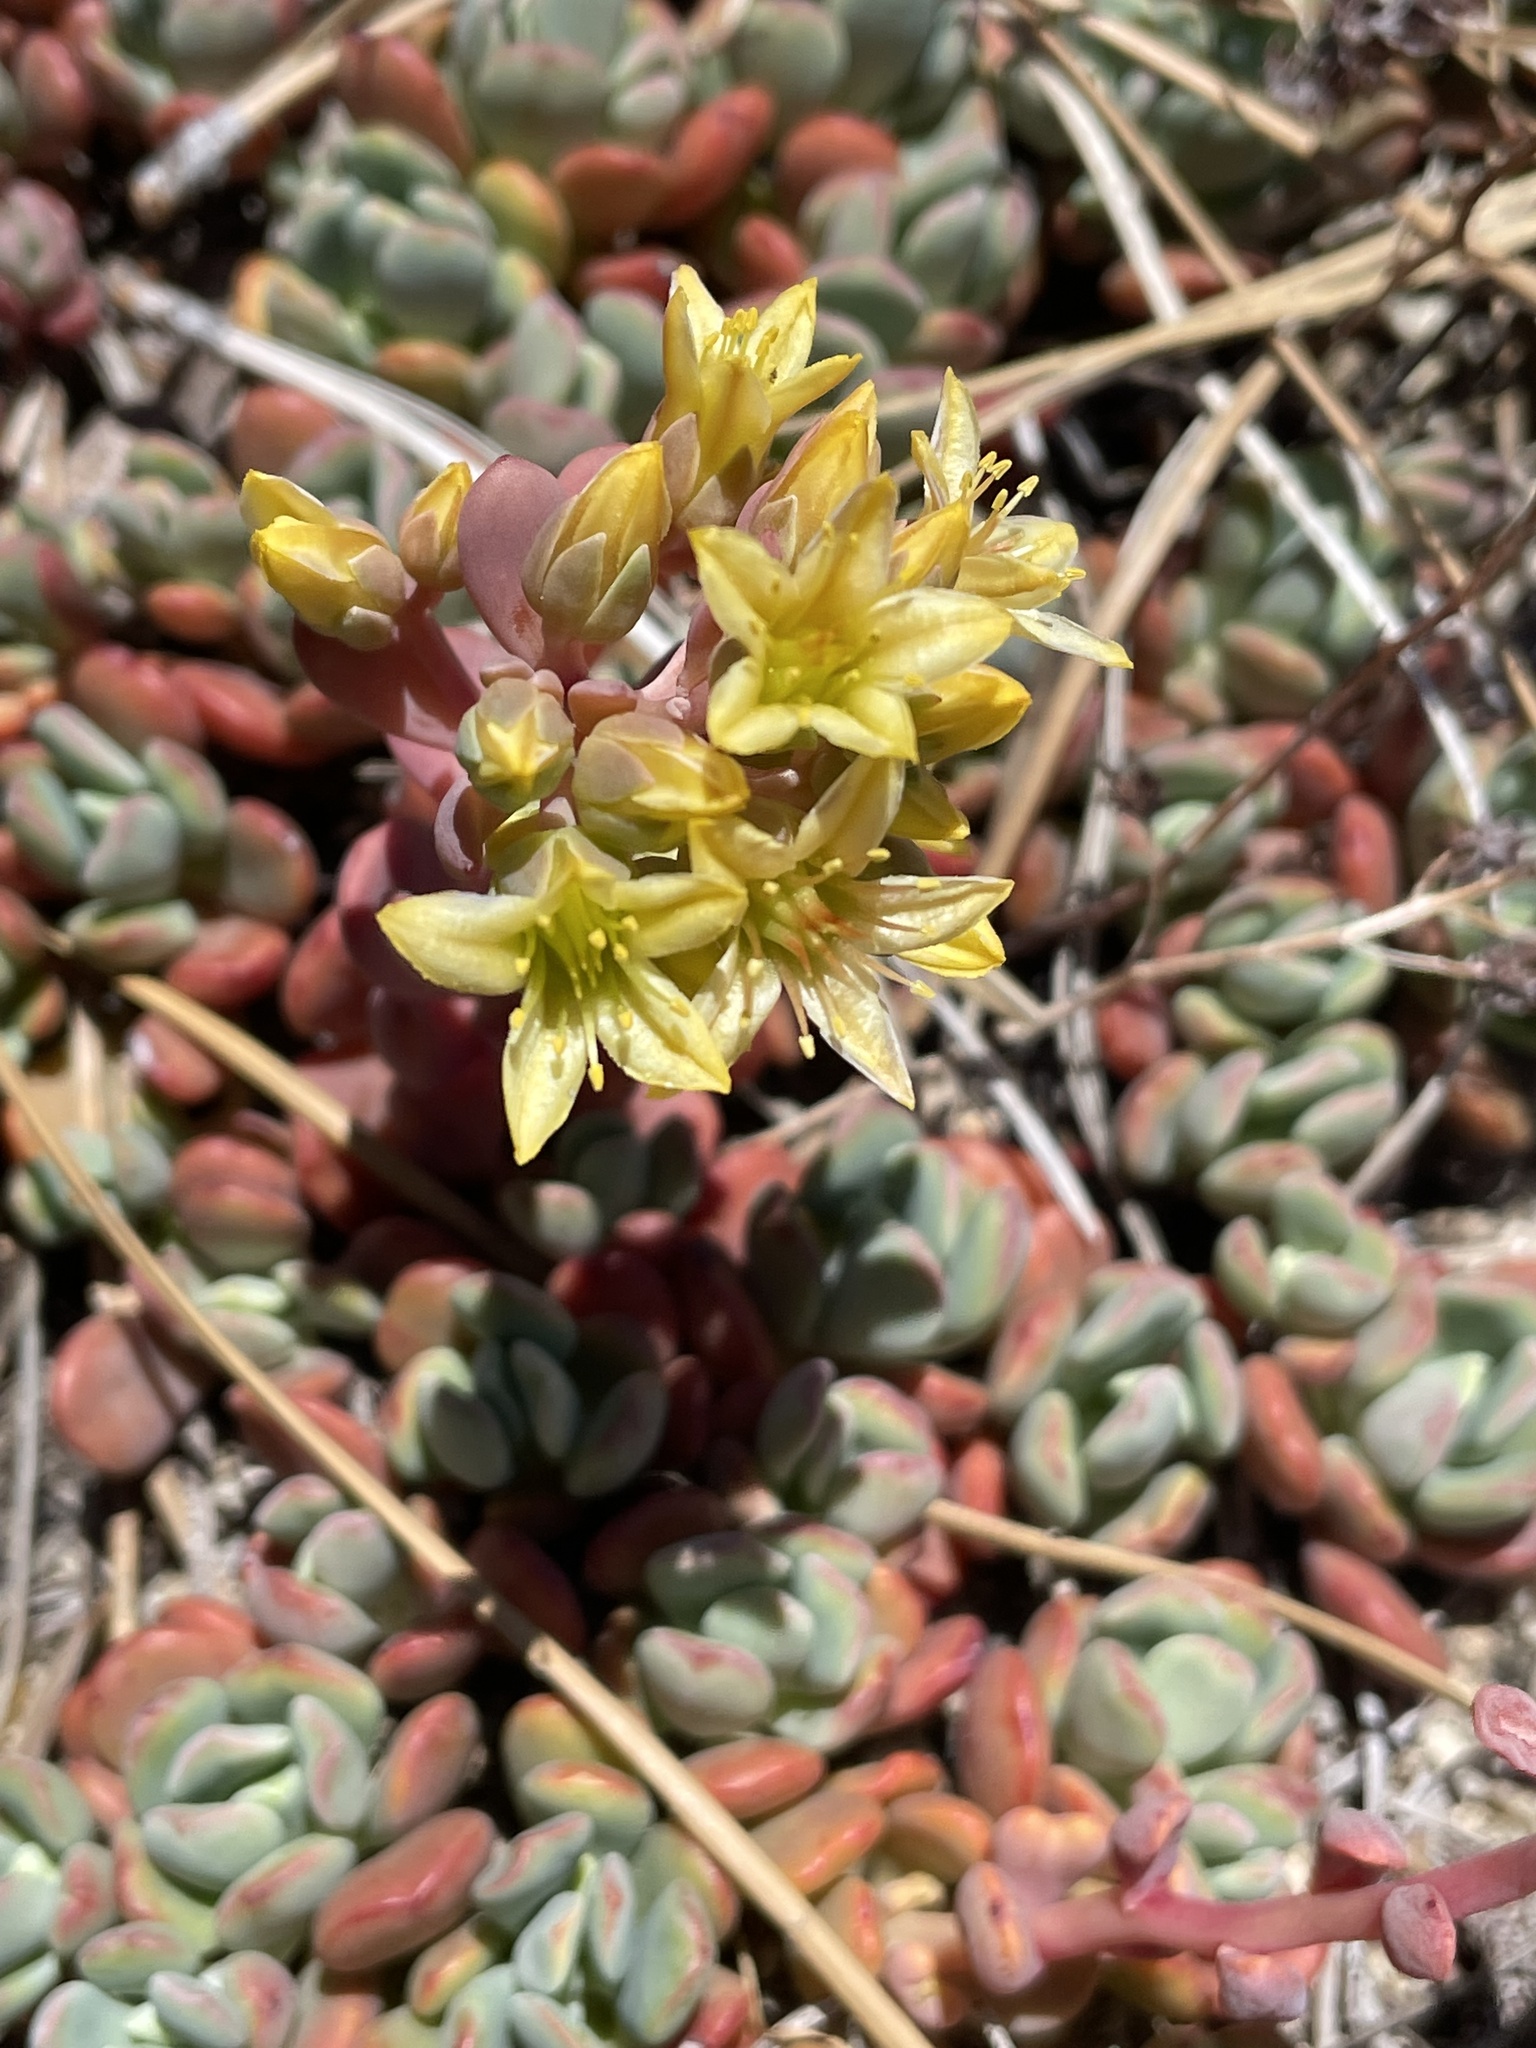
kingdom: Plantae
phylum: Tracheophyta
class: Magnoliopsida
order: Saxifragales
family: Crassulaceae
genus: Sedum
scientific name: Sedum obtusatum
